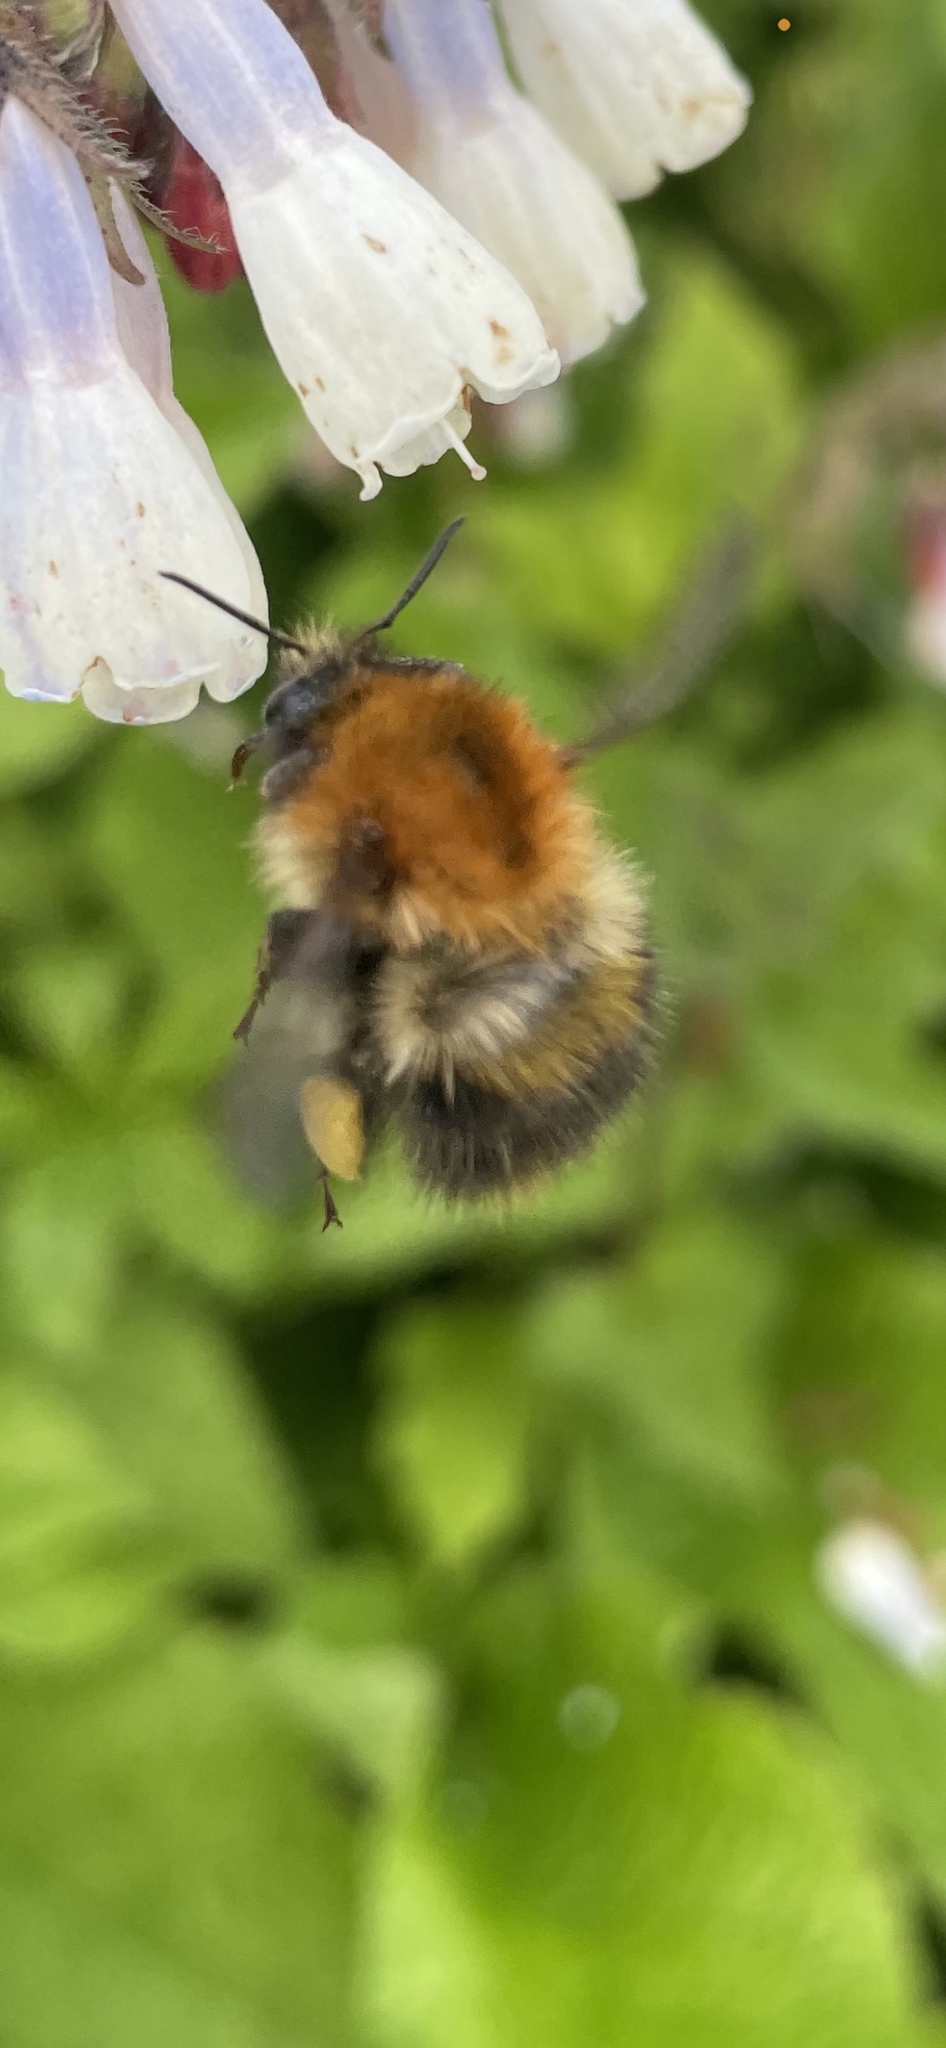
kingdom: Animalia
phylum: Arthropoda
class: Insecta
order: Hymenoptera
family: Apidae
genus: Bombus
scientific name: Bombus pascuorum
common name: Common carder bee
